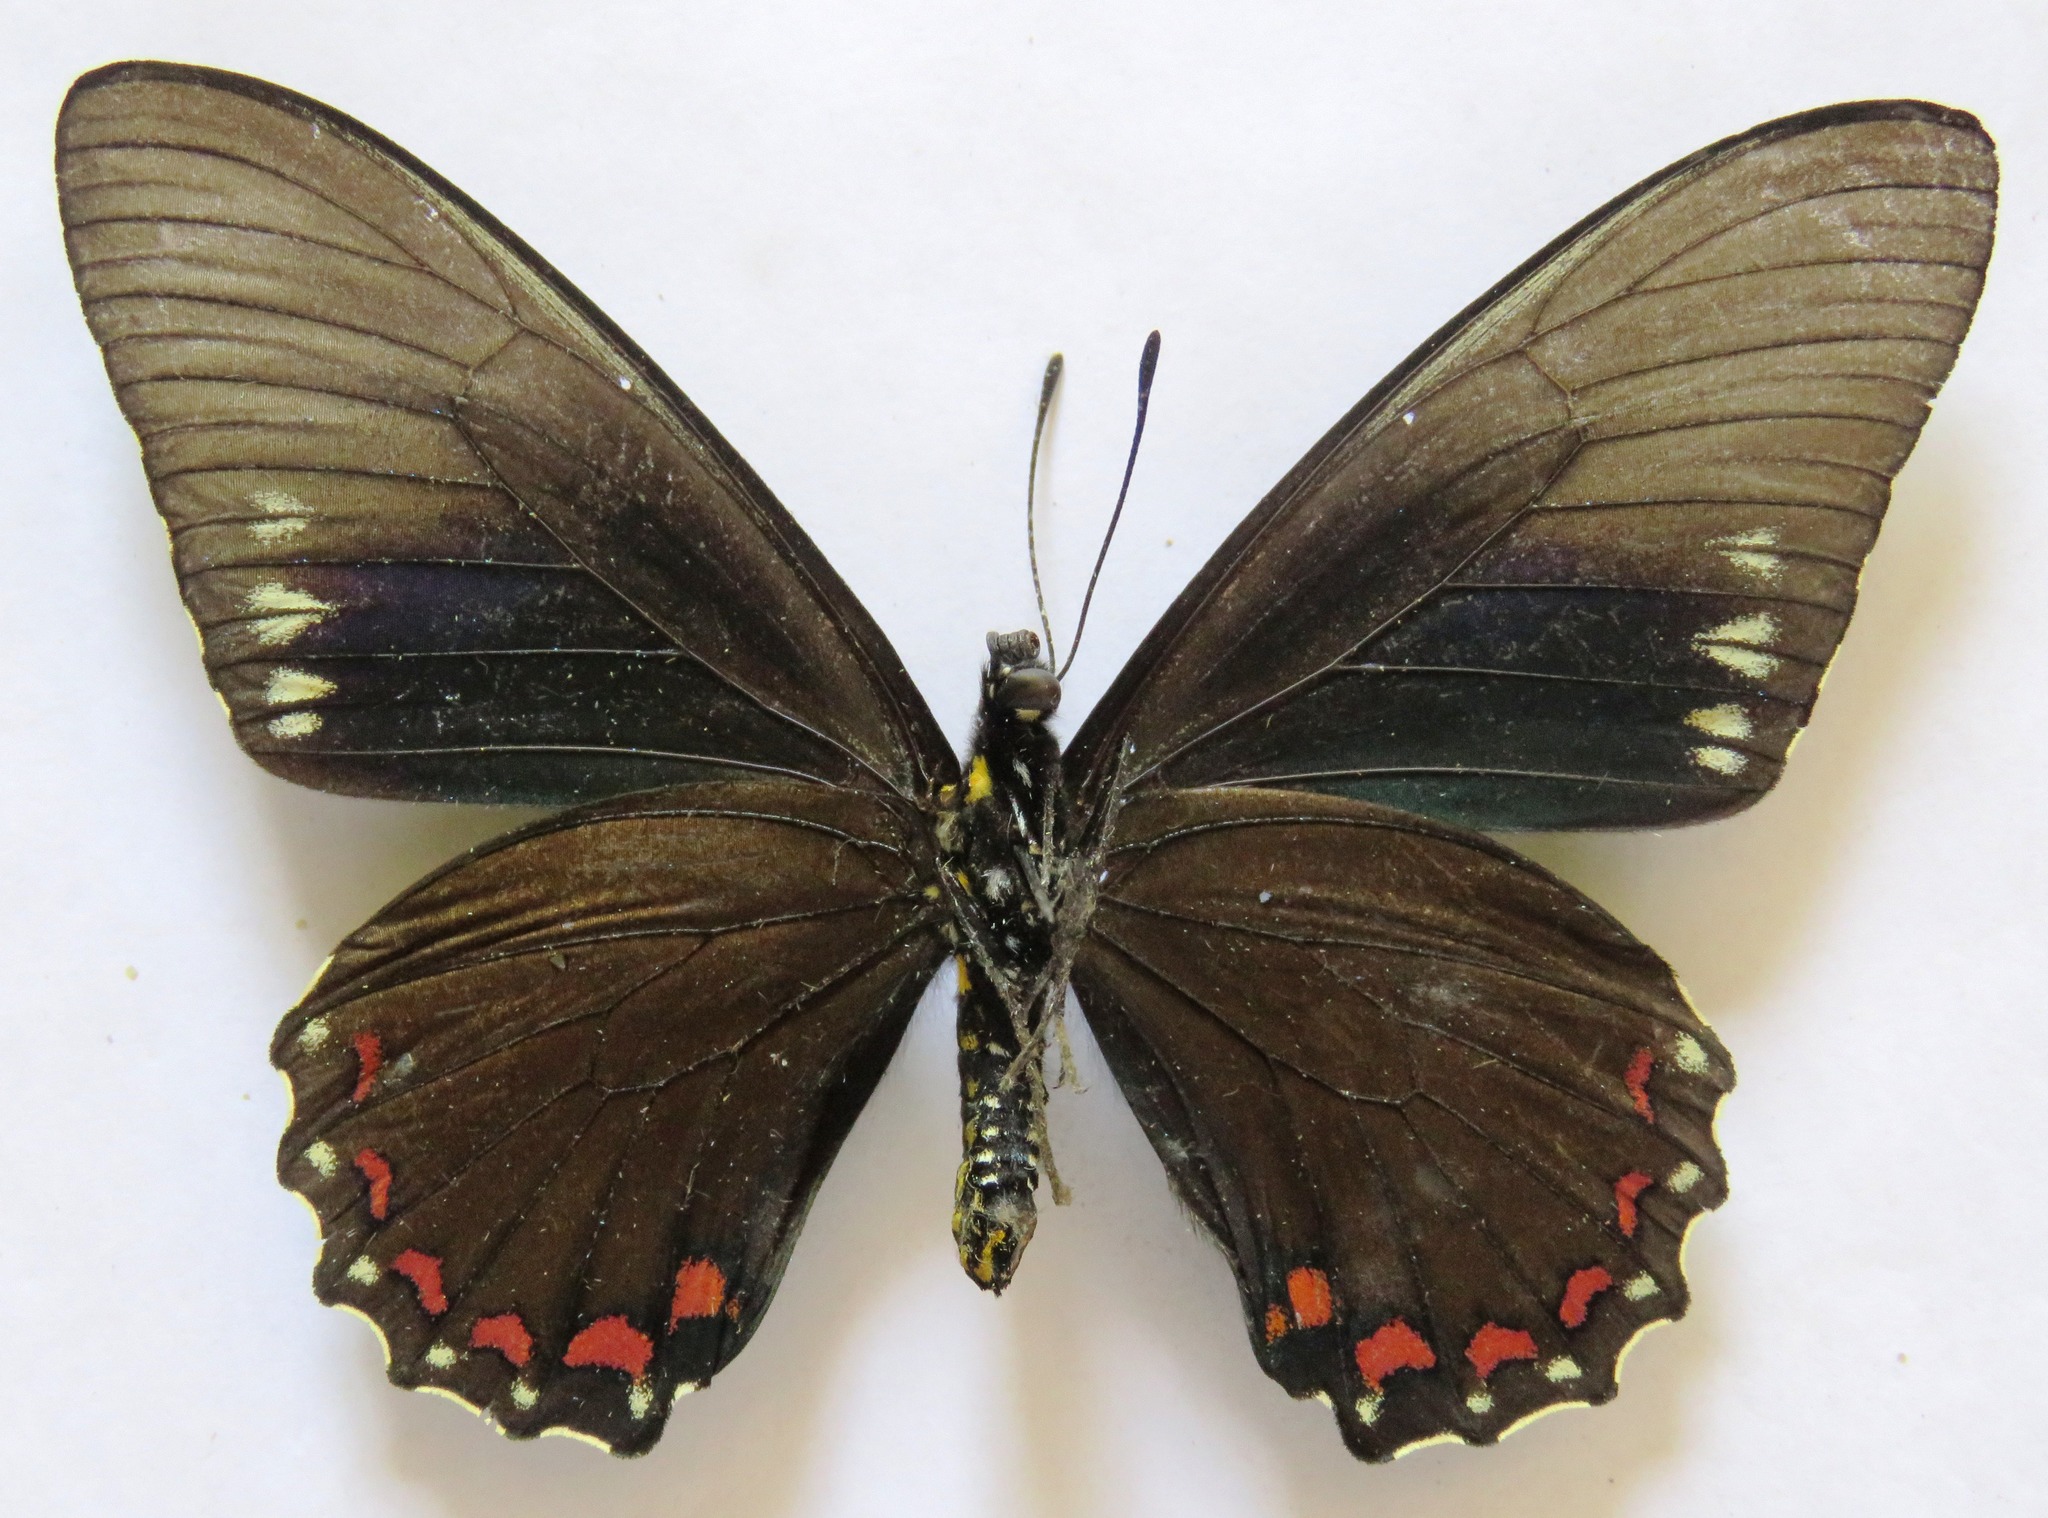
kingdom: Animalia
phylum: Arthropoda
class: Insecta
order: Lepidoptera
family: Papilionidae
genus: Battus
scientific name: Battus ingenuus
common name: Confused swallowtail
